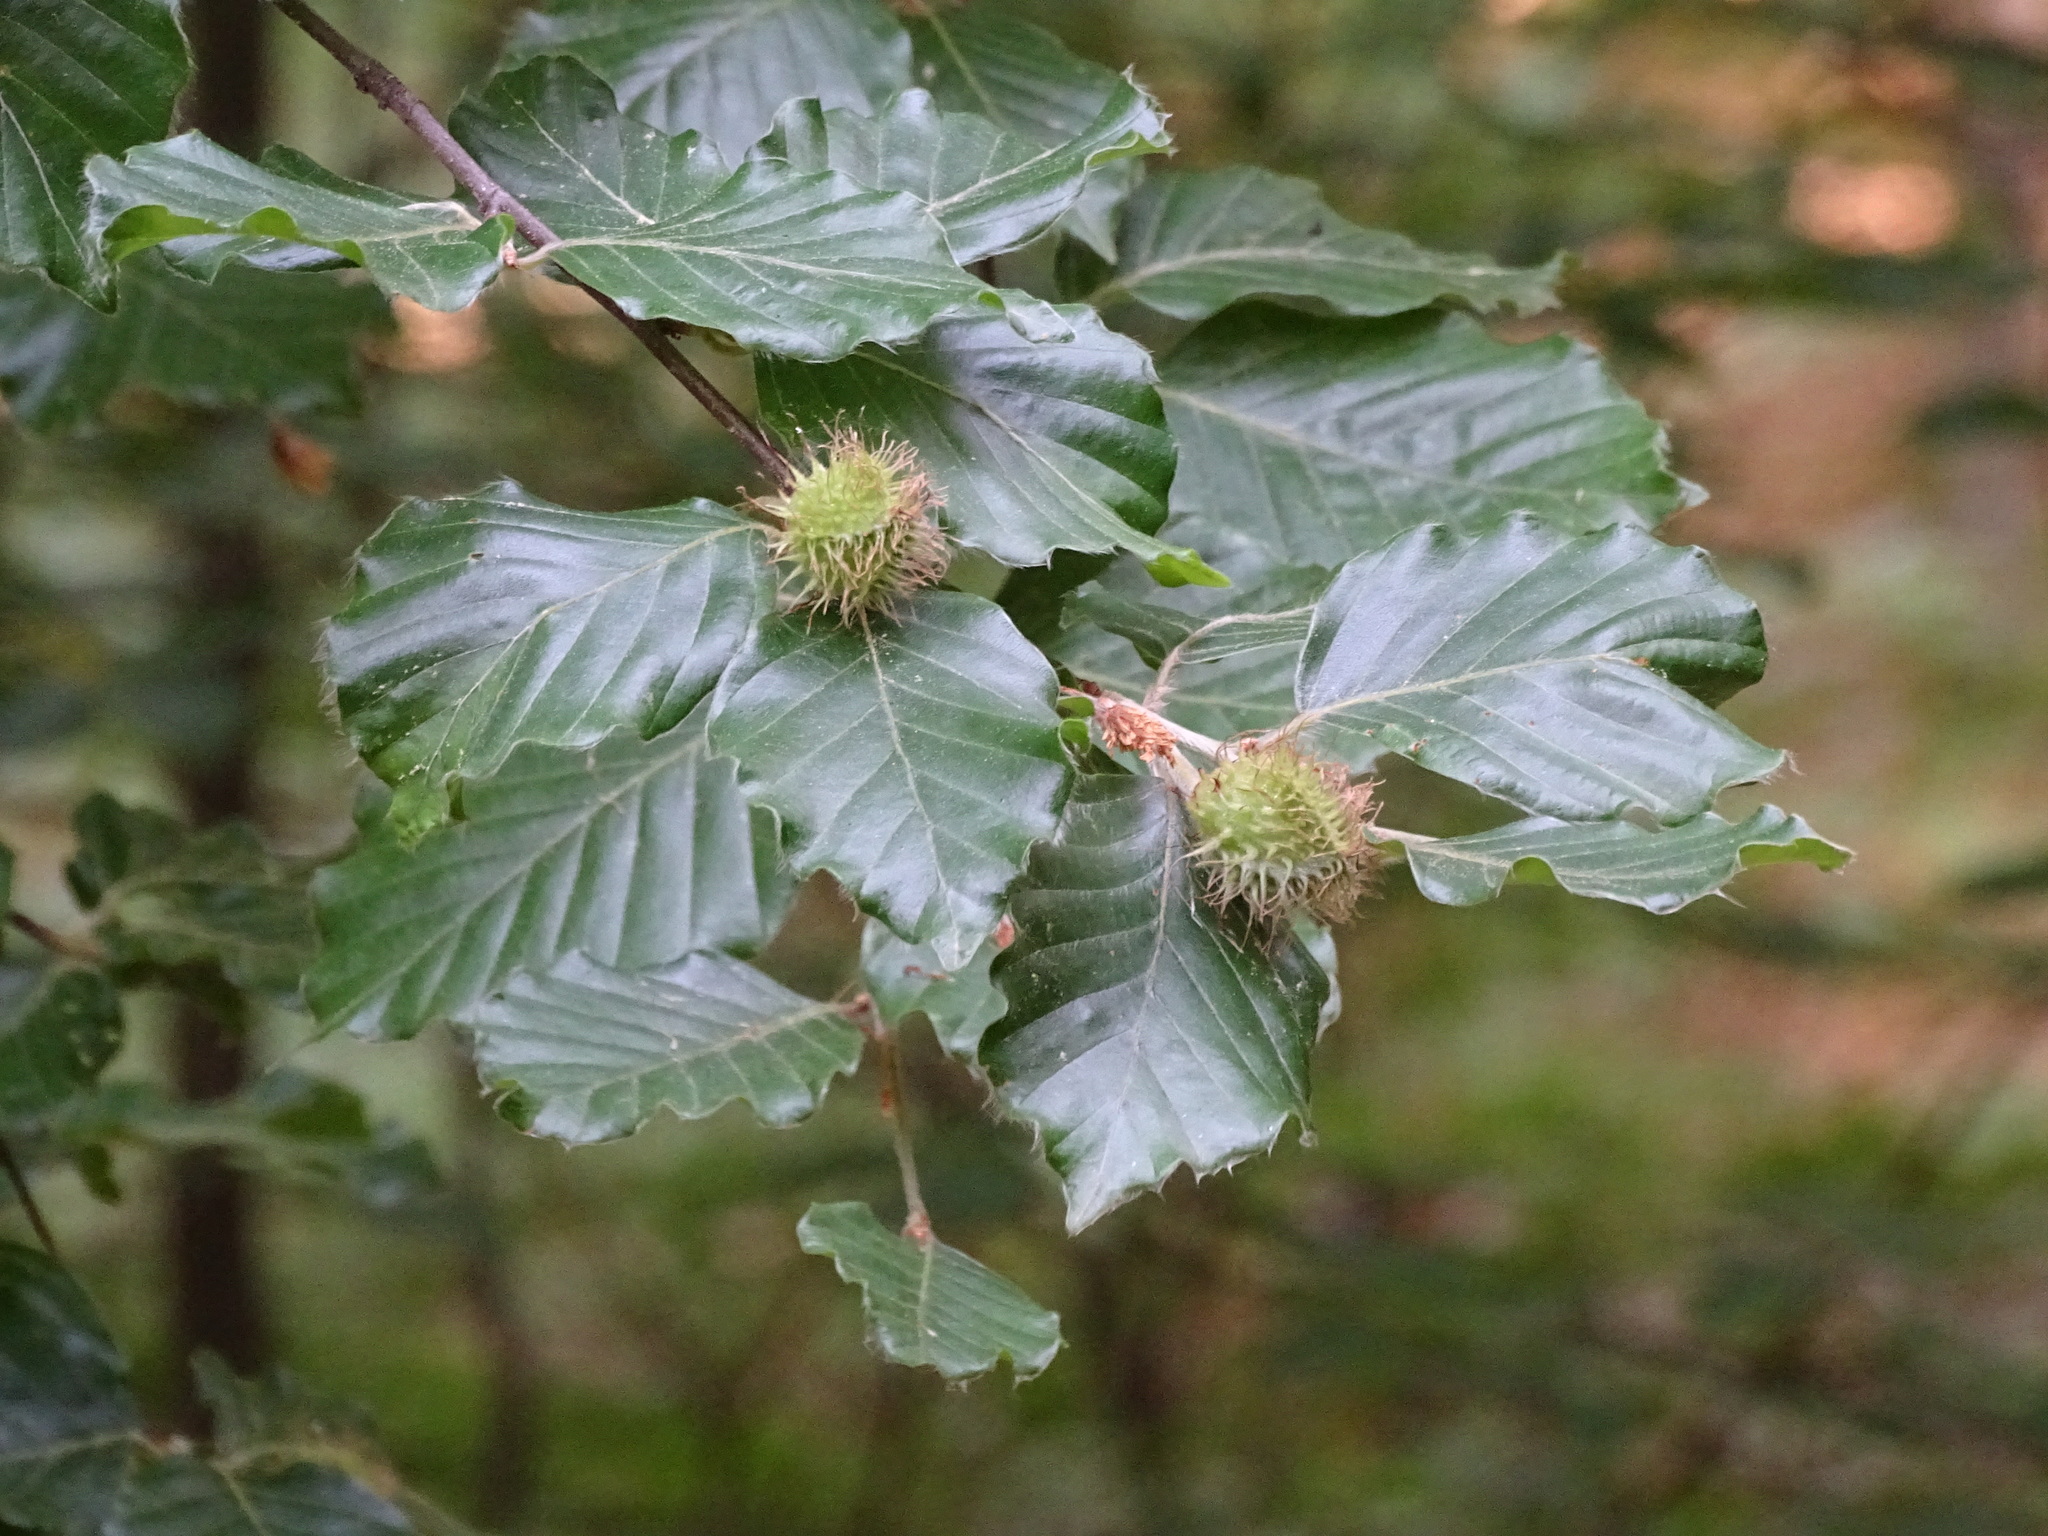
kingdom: Plantae
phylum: Tracheophyta
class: Magnoliopsida
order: Fagales
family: Fagaceae
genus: Fagus
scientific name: Fagus sylvatica
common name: Beech
